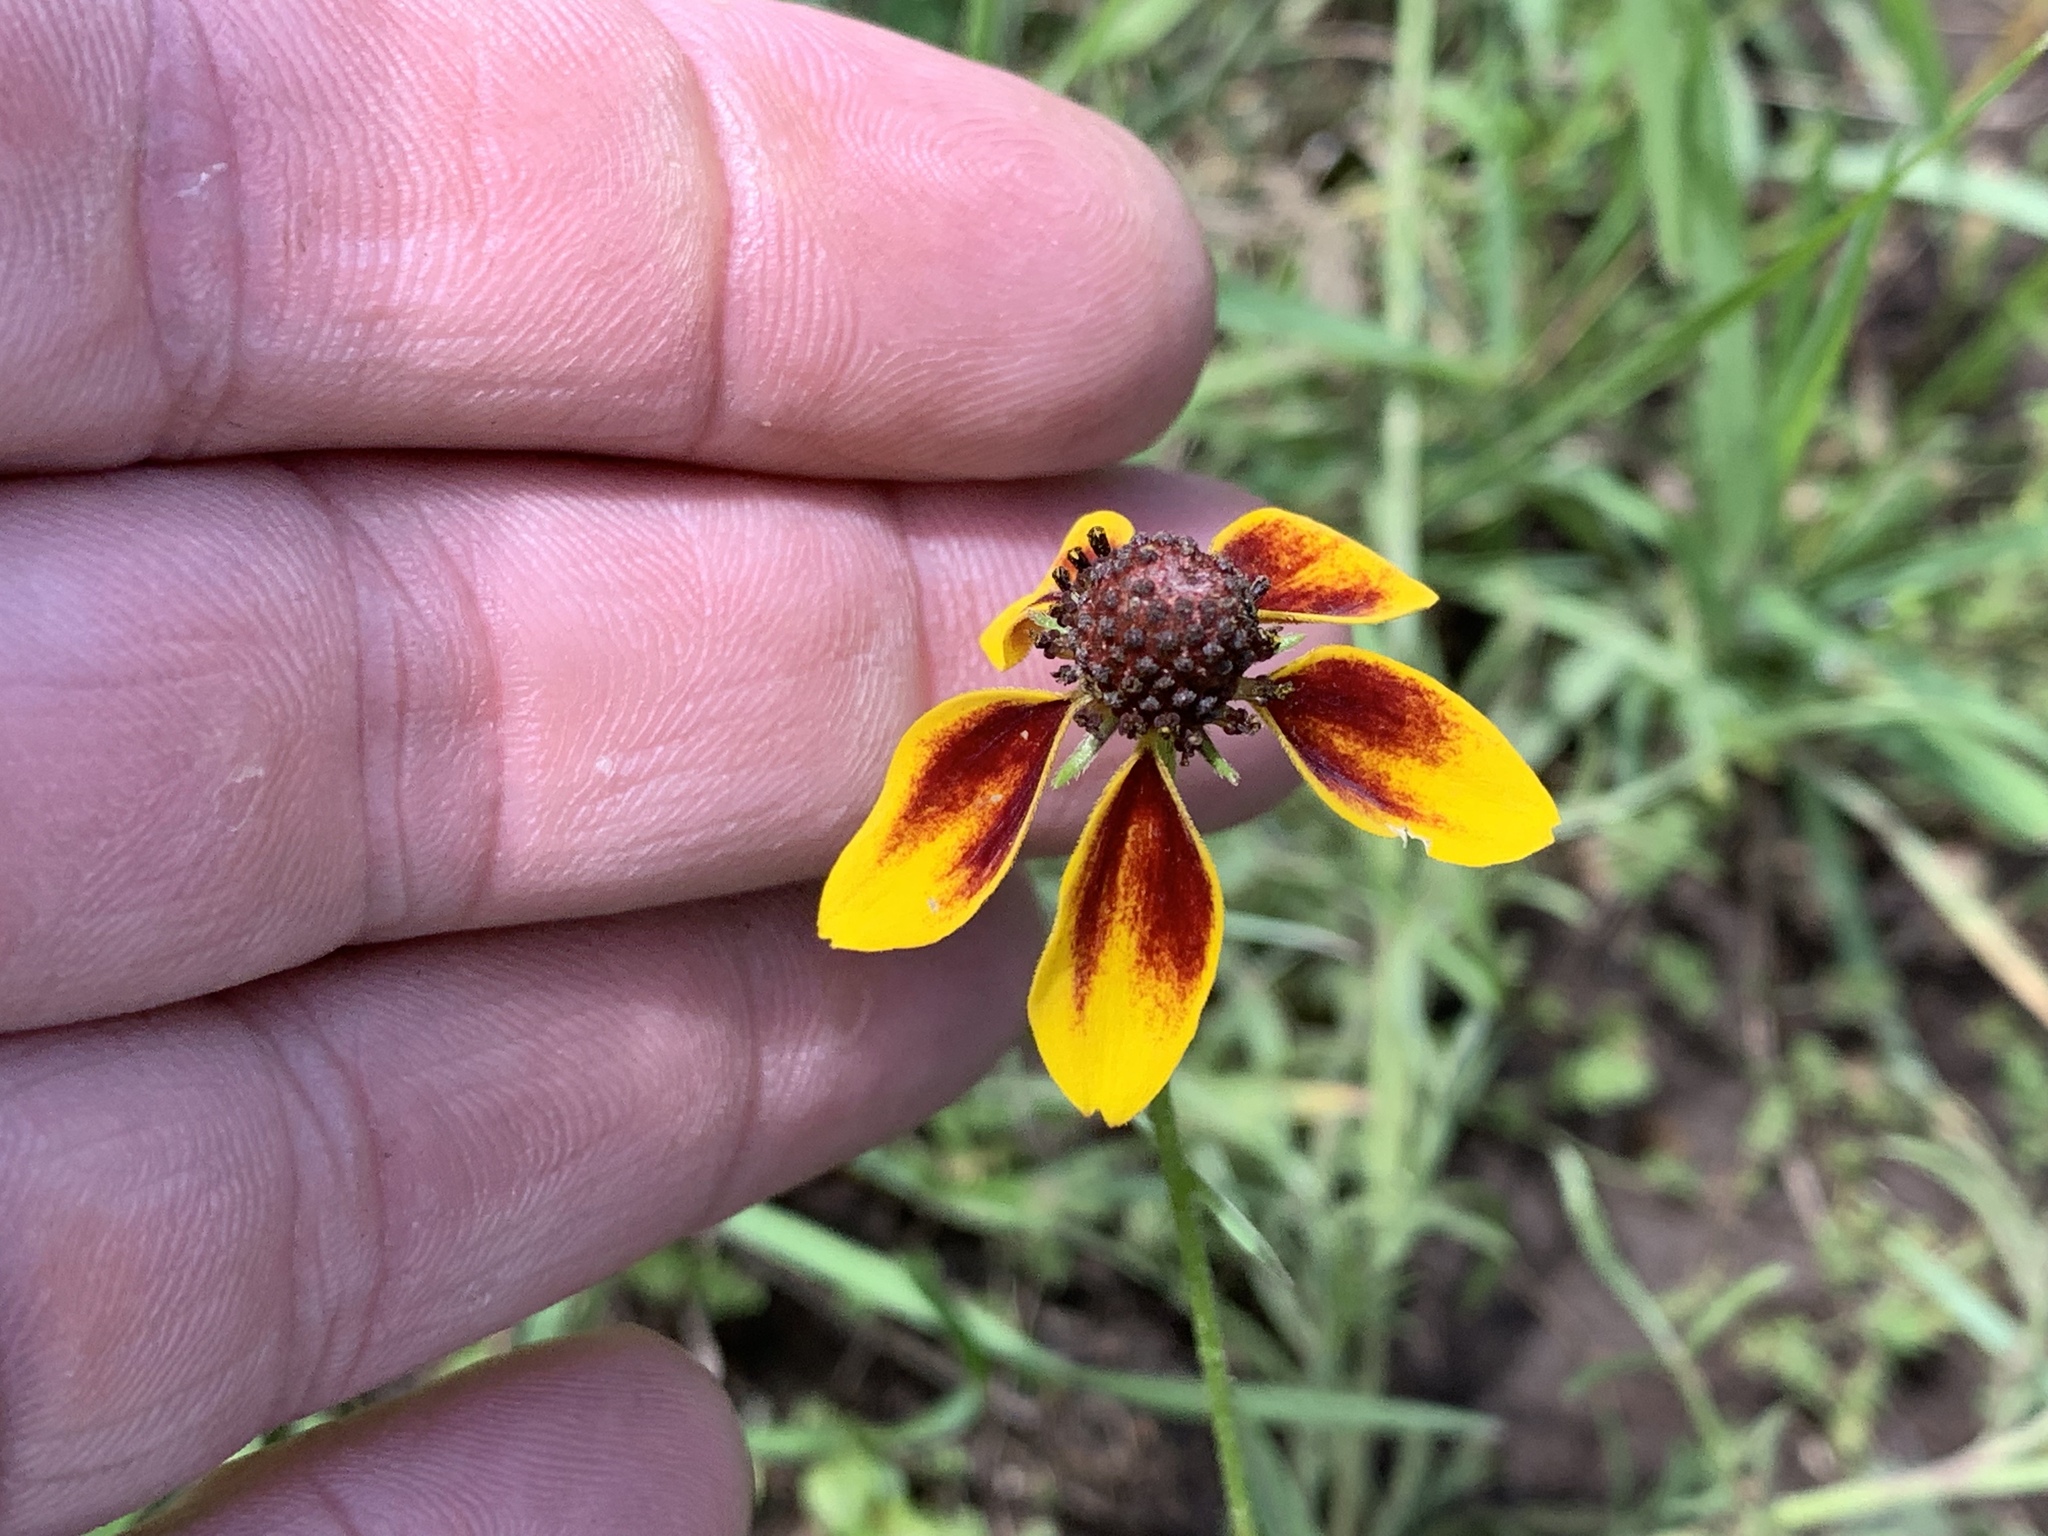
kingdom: Plantae
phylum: Tracheophyta
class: Magnoliopsida
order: Asterales
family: Asteraceae
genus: Ratibida
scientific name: Ratibida columnifera
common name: Prairie coneflower
